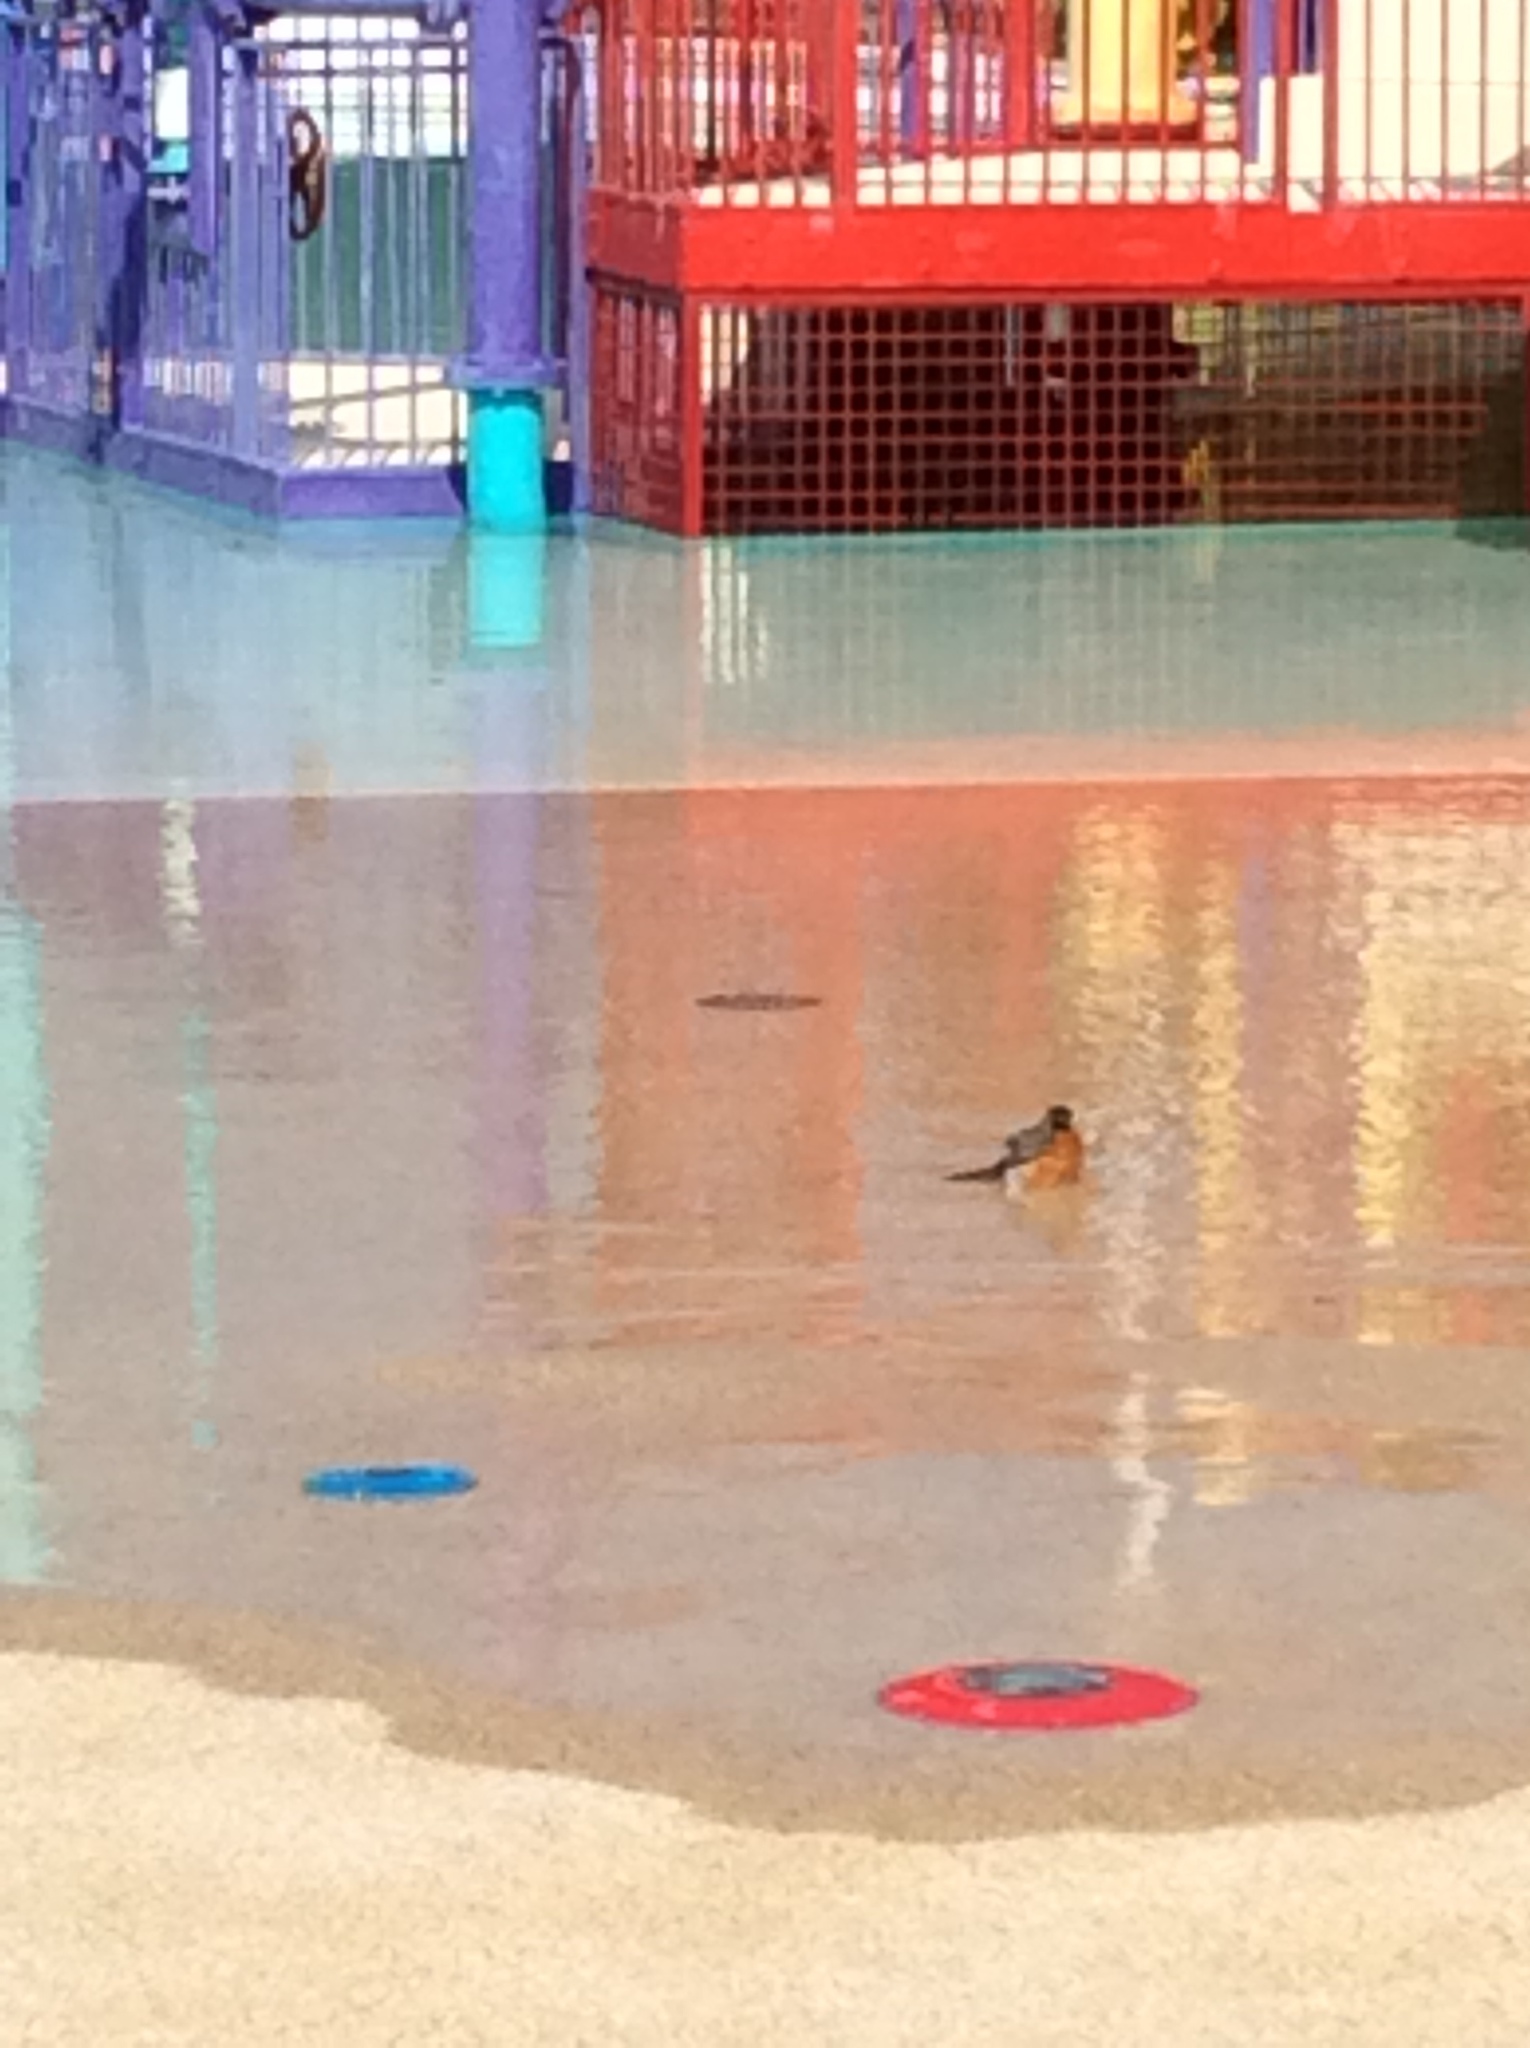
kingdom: Animalia
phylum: Chordata
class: Aves
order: Passeriformes
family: Turdidae
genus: Turdus
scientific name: Turdus migratorius
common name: American robin
